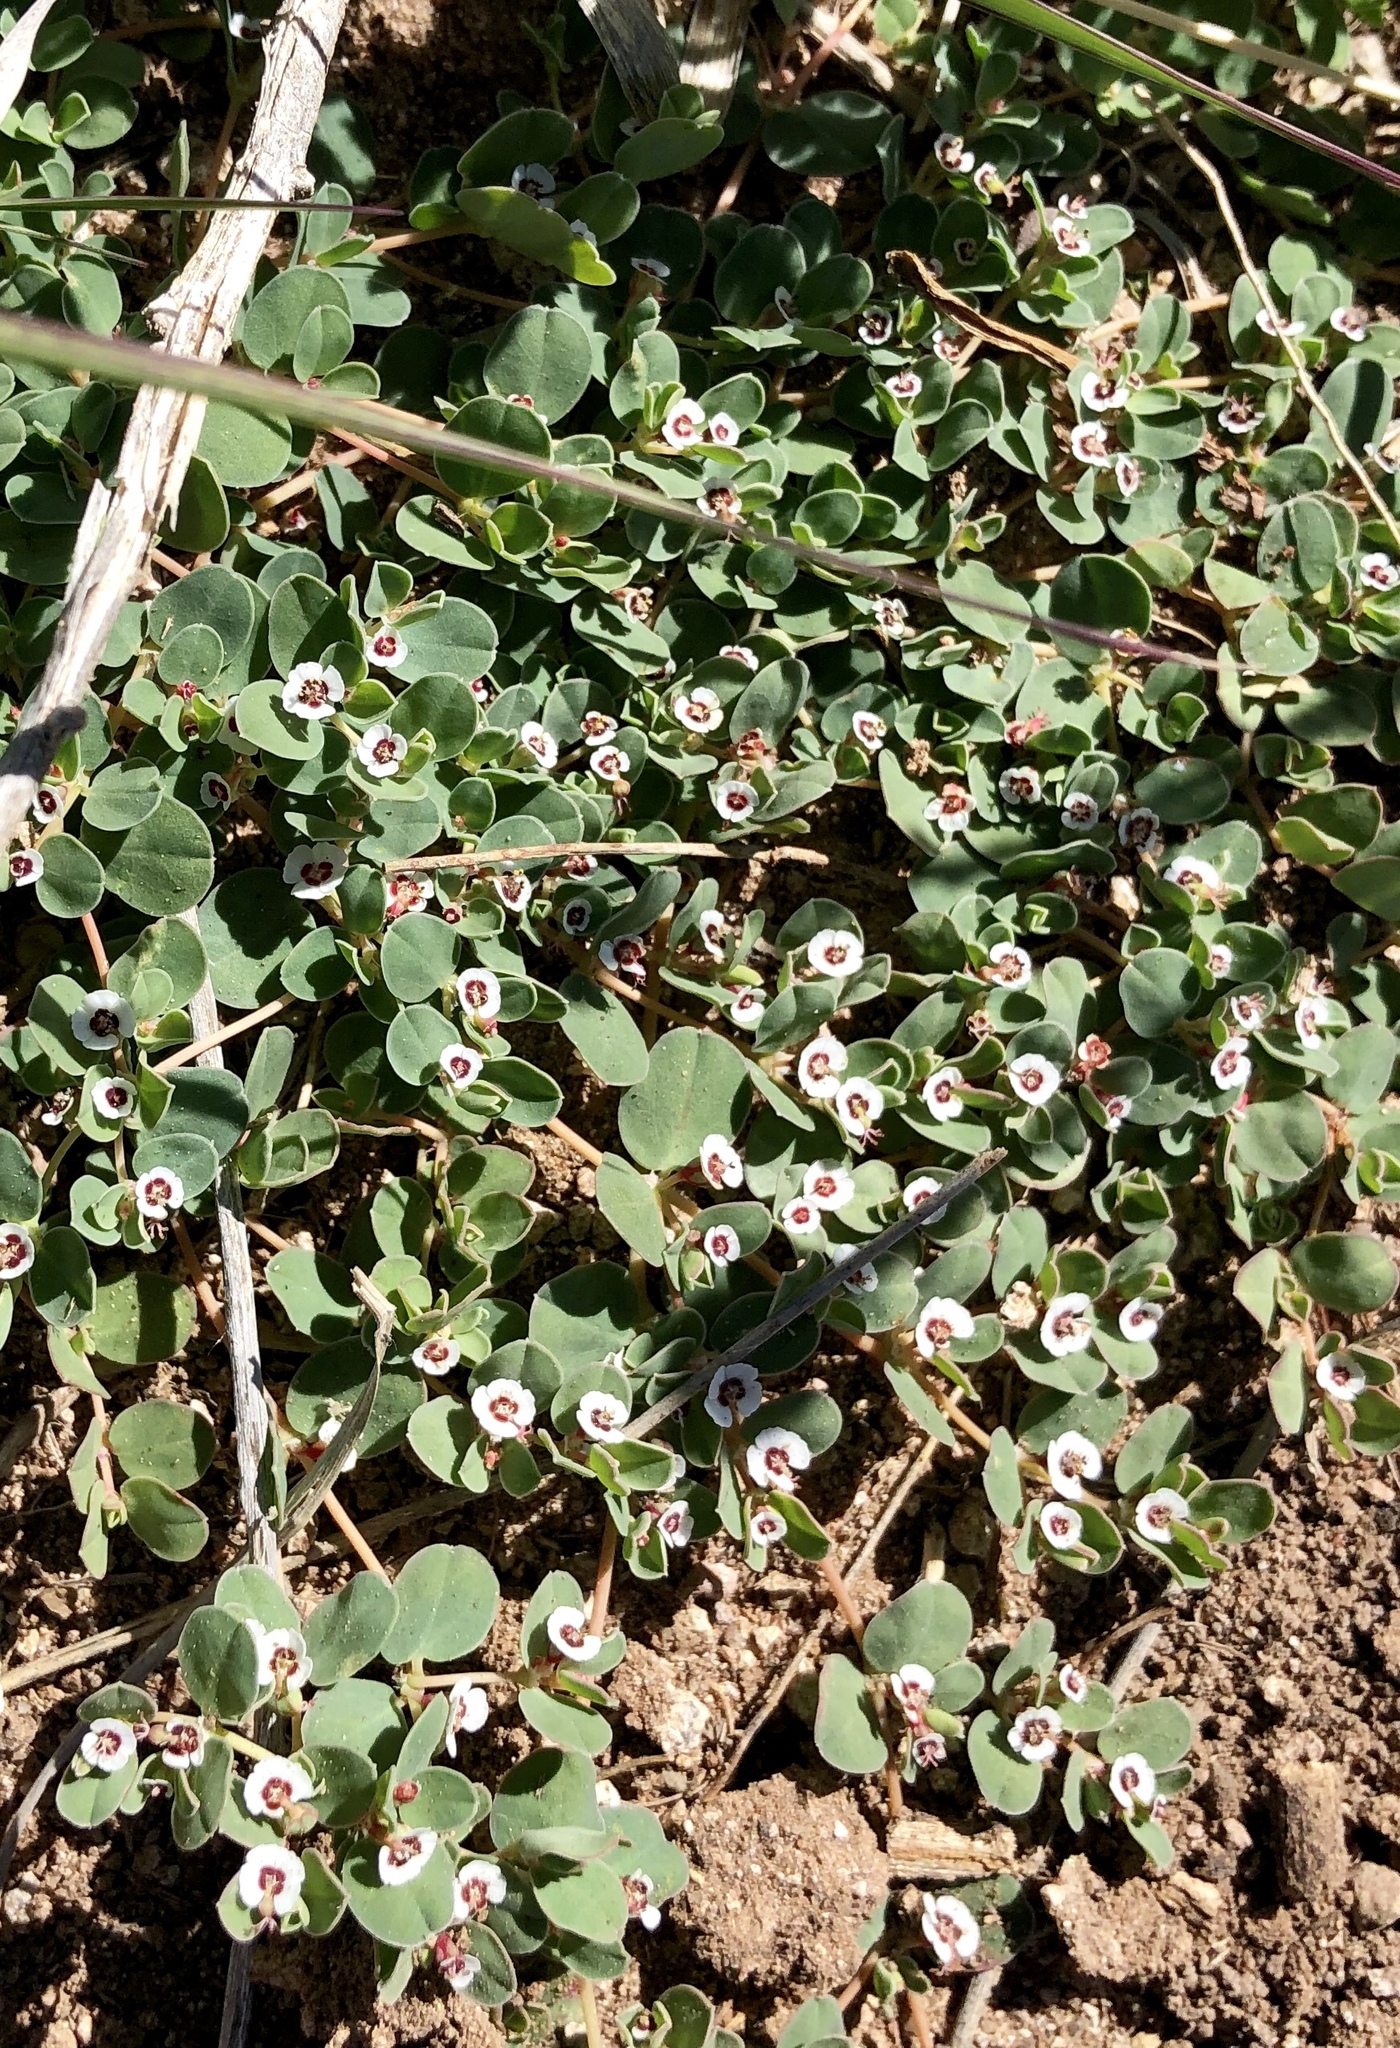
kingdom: Plantae
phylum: Tracheophyta
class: Magnoliopsida
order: Malpighiales
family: Euphorbiaceae
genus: Euphorbia
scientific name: Euphorbia albomarginata
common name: Whitemargin sandmat
